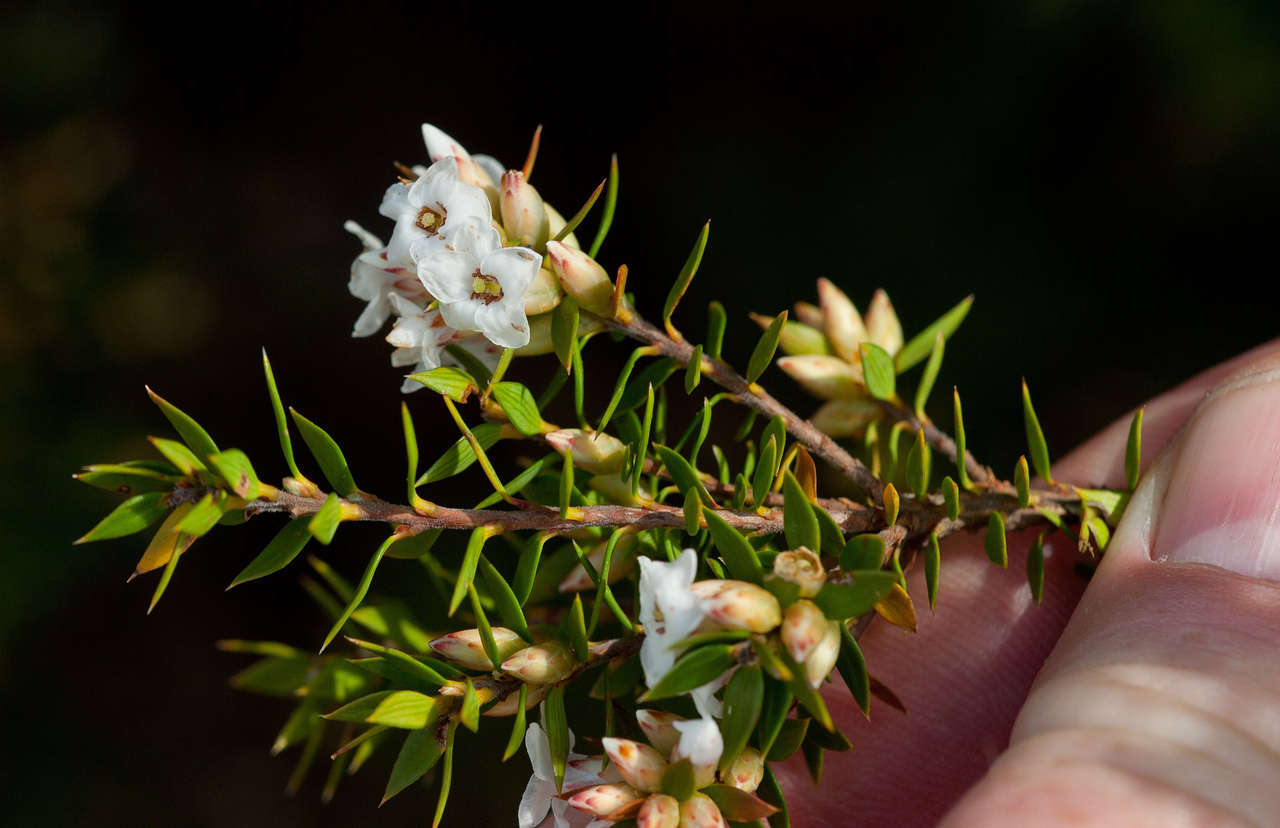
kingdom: Plantae
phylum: Tracheophyta
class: Magnoliopsida
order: Ericales
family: Ericaceae
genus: Epacris
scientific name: Epacris paludosa
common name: Swamp-heath
